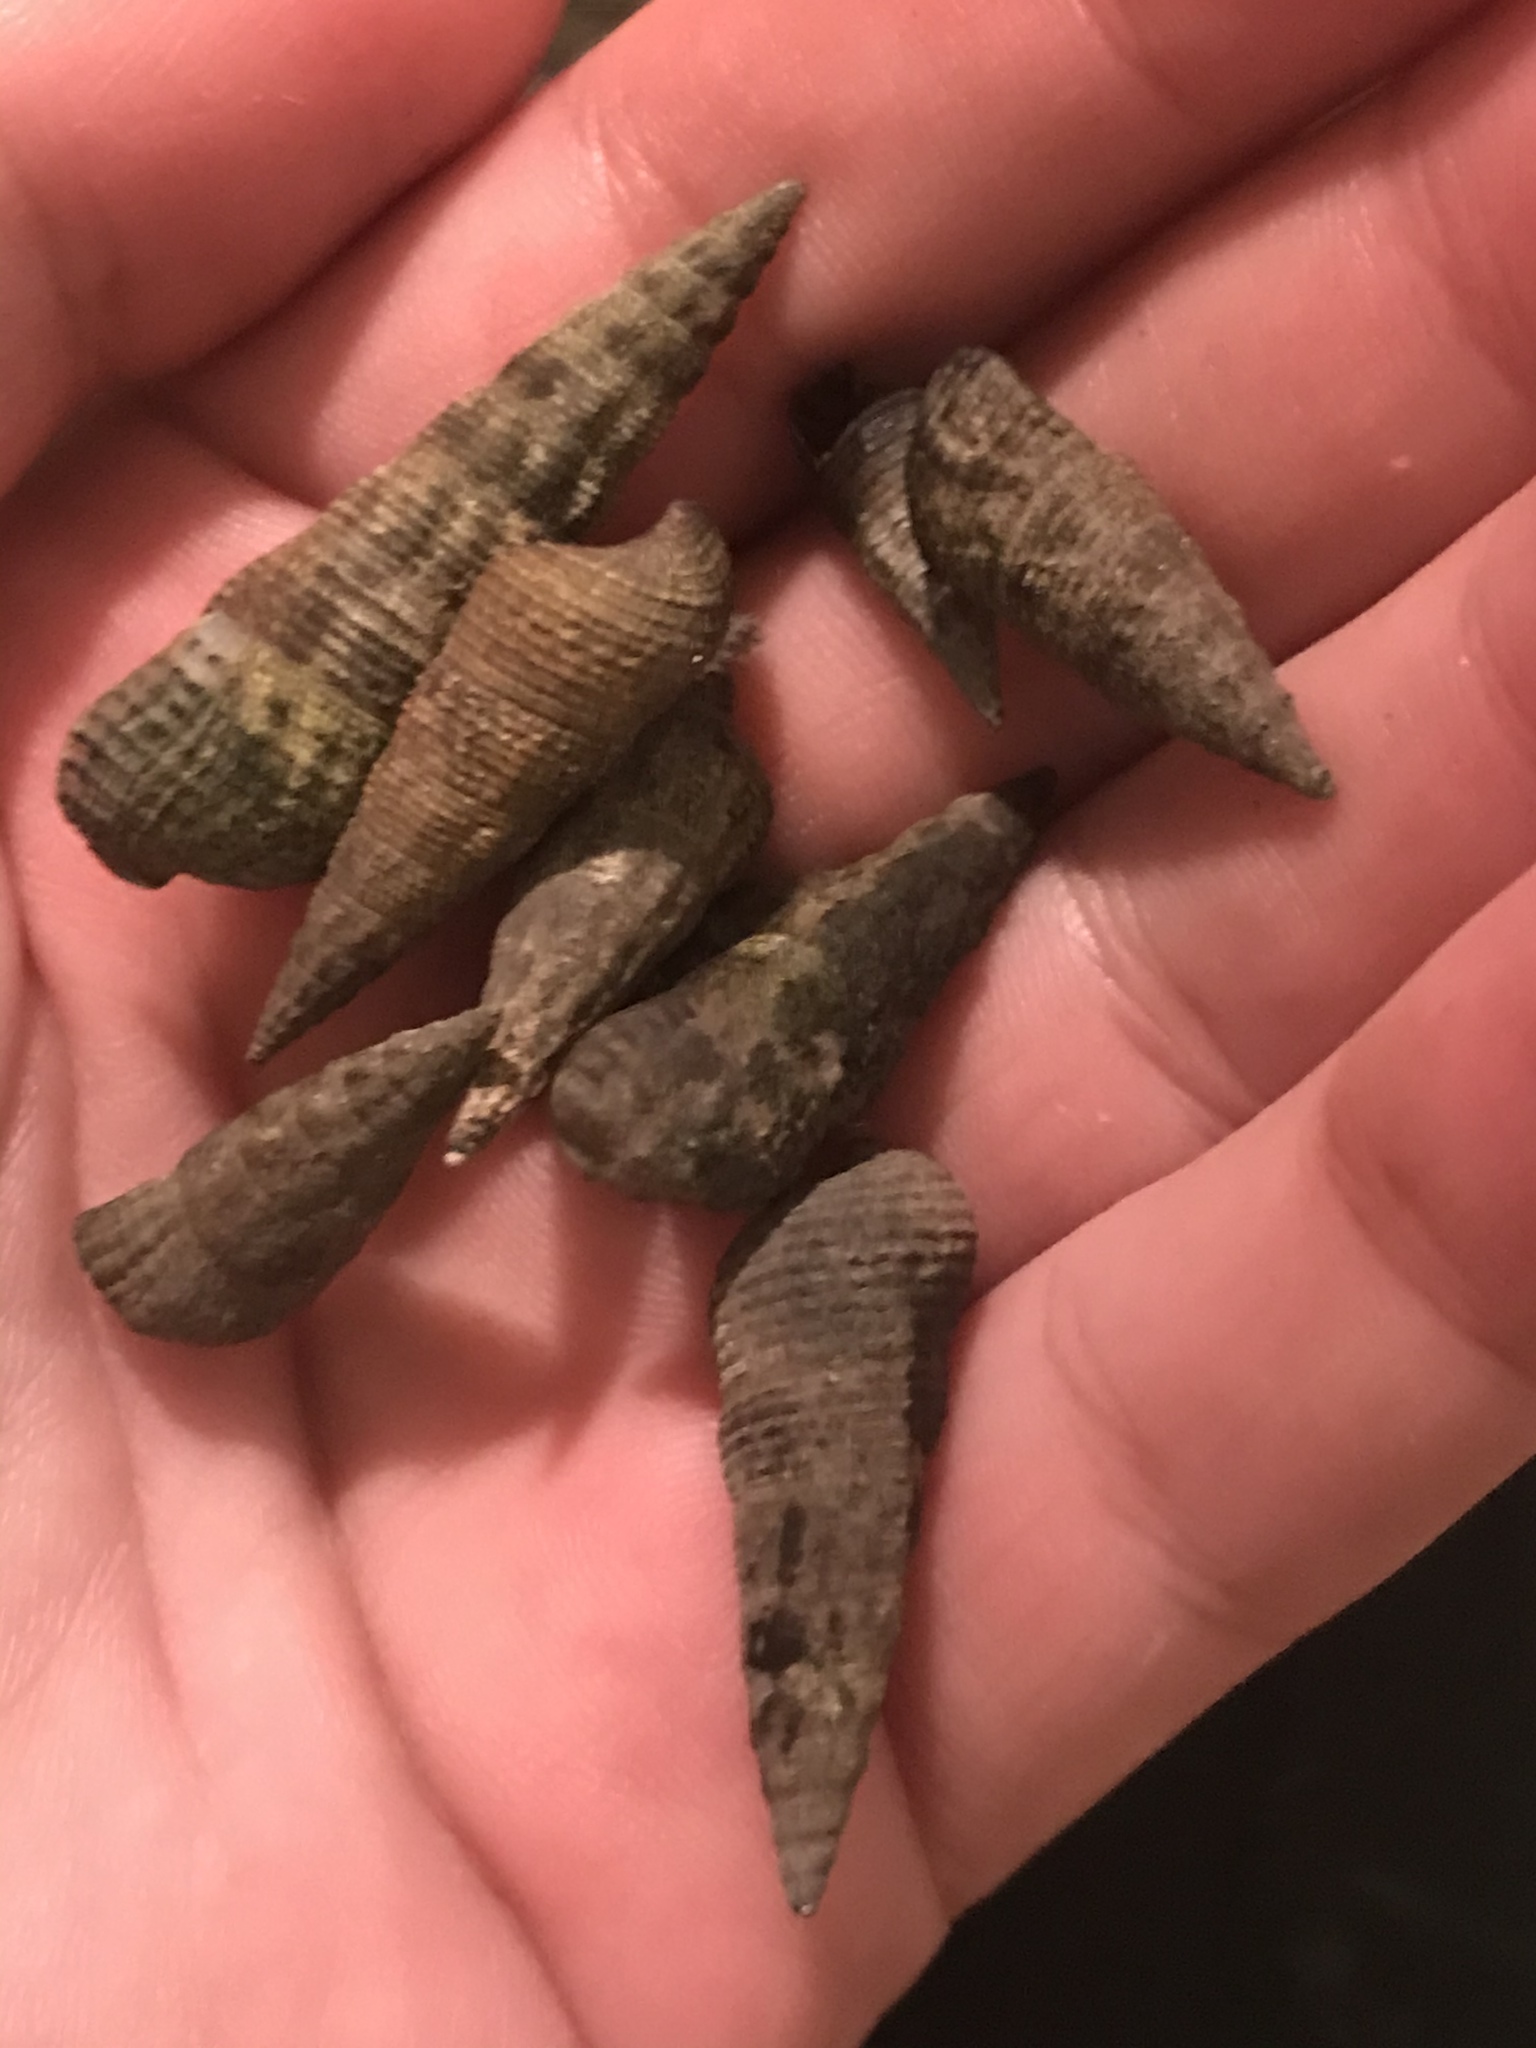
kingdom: Animalia
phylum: Mollusca
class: Gastropoda
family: Batillariidae
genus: Batillaria
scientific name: Batillaria attramentaria
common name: Japanese false cerith
